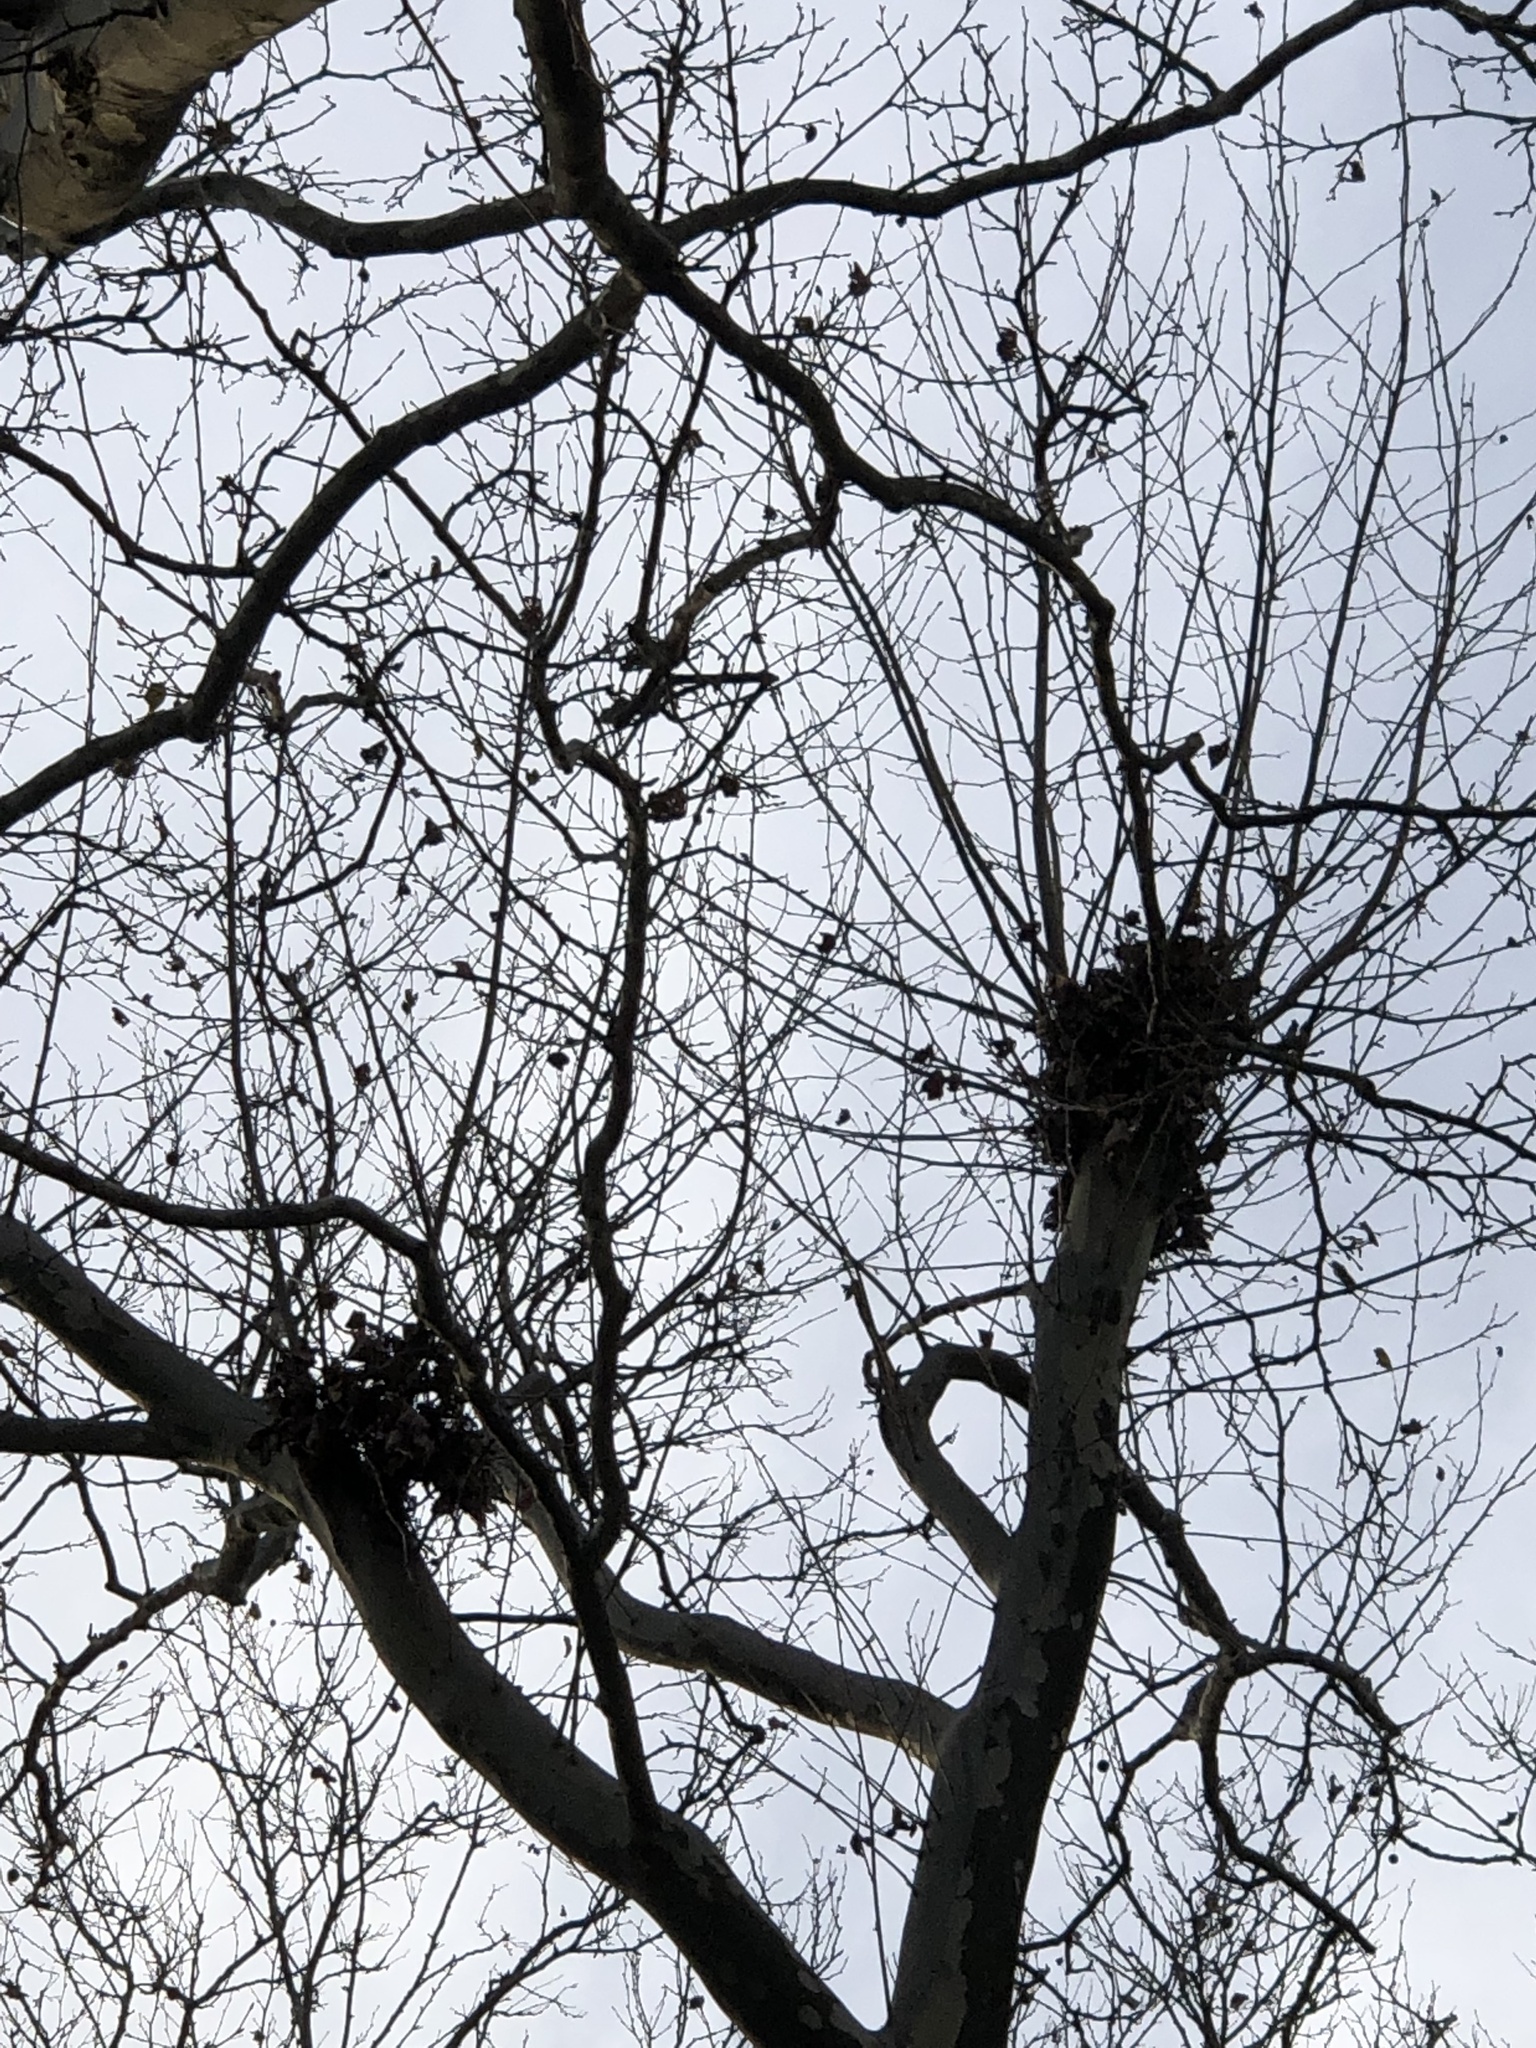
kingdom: Animalia
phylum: Chordata
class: Mammalia
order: Rodentia
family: Sciuridae
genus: Sciurus
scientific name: Sciurus carolinensis
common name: Eastern gray squirrel
